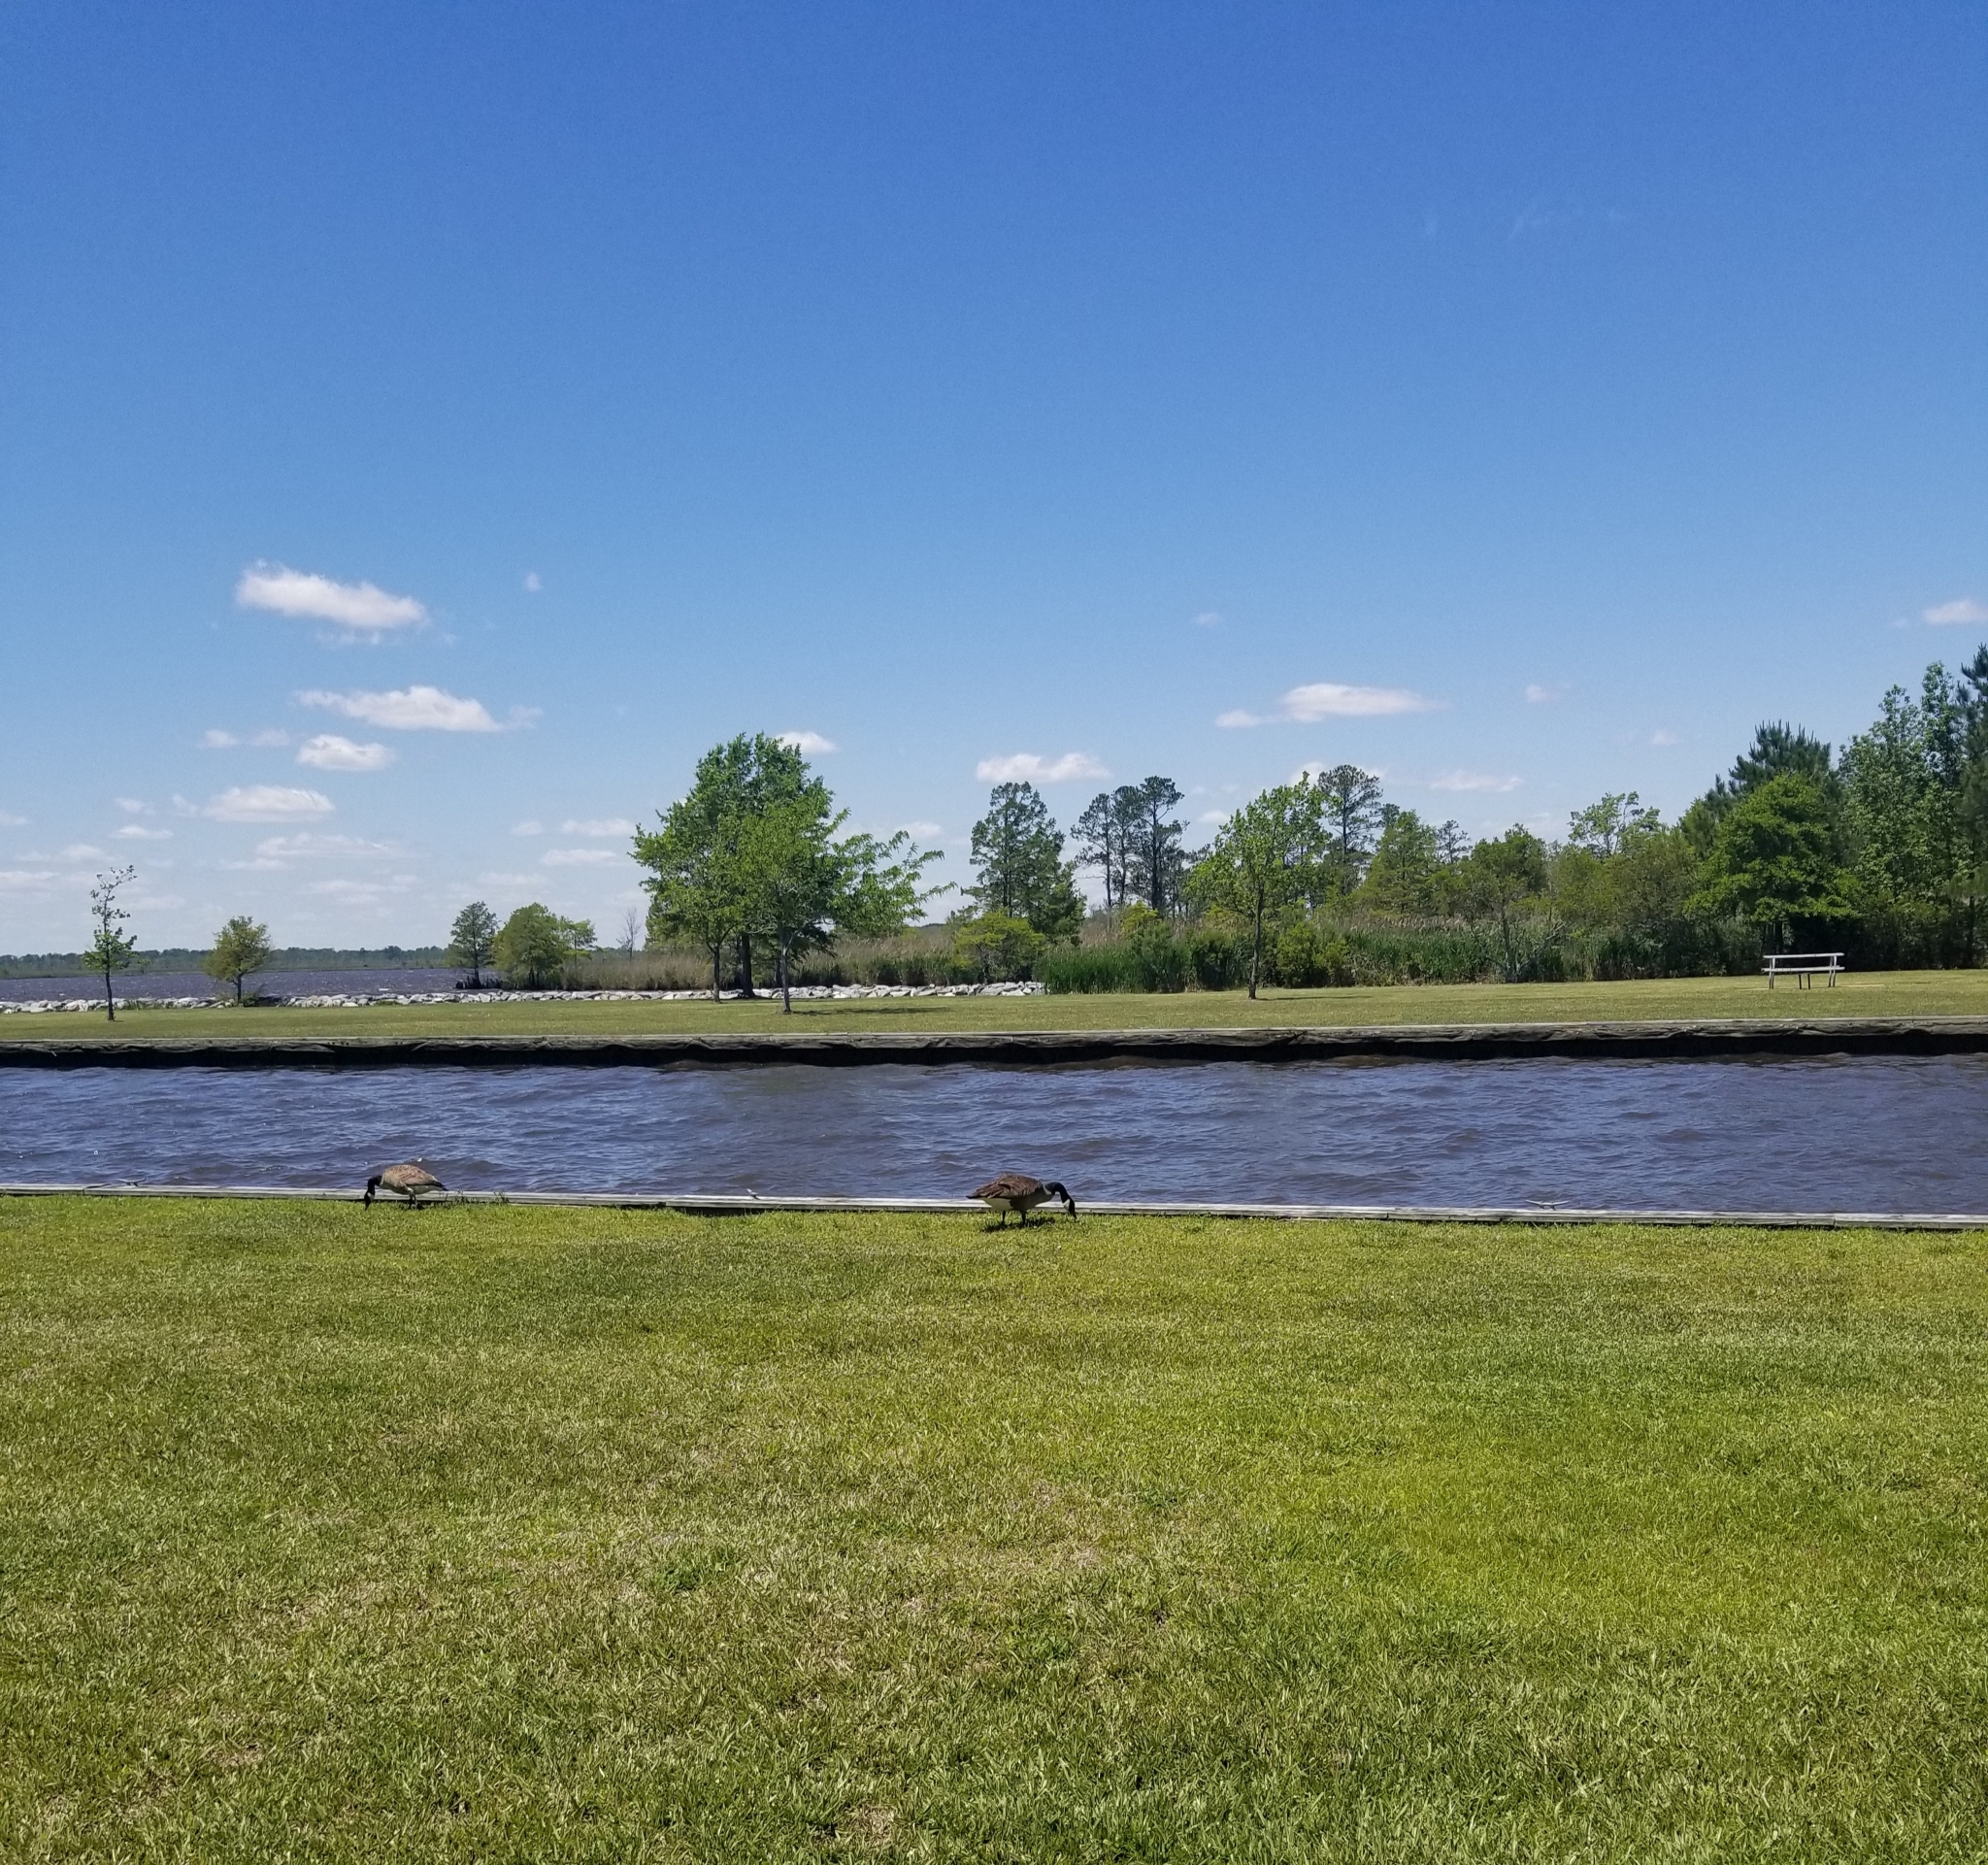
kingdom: Animalia
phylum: Chordata
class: Aves
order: Anseriformes
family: Anatidae
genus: Branta
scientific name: Branta canadensis
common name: Canada goose
